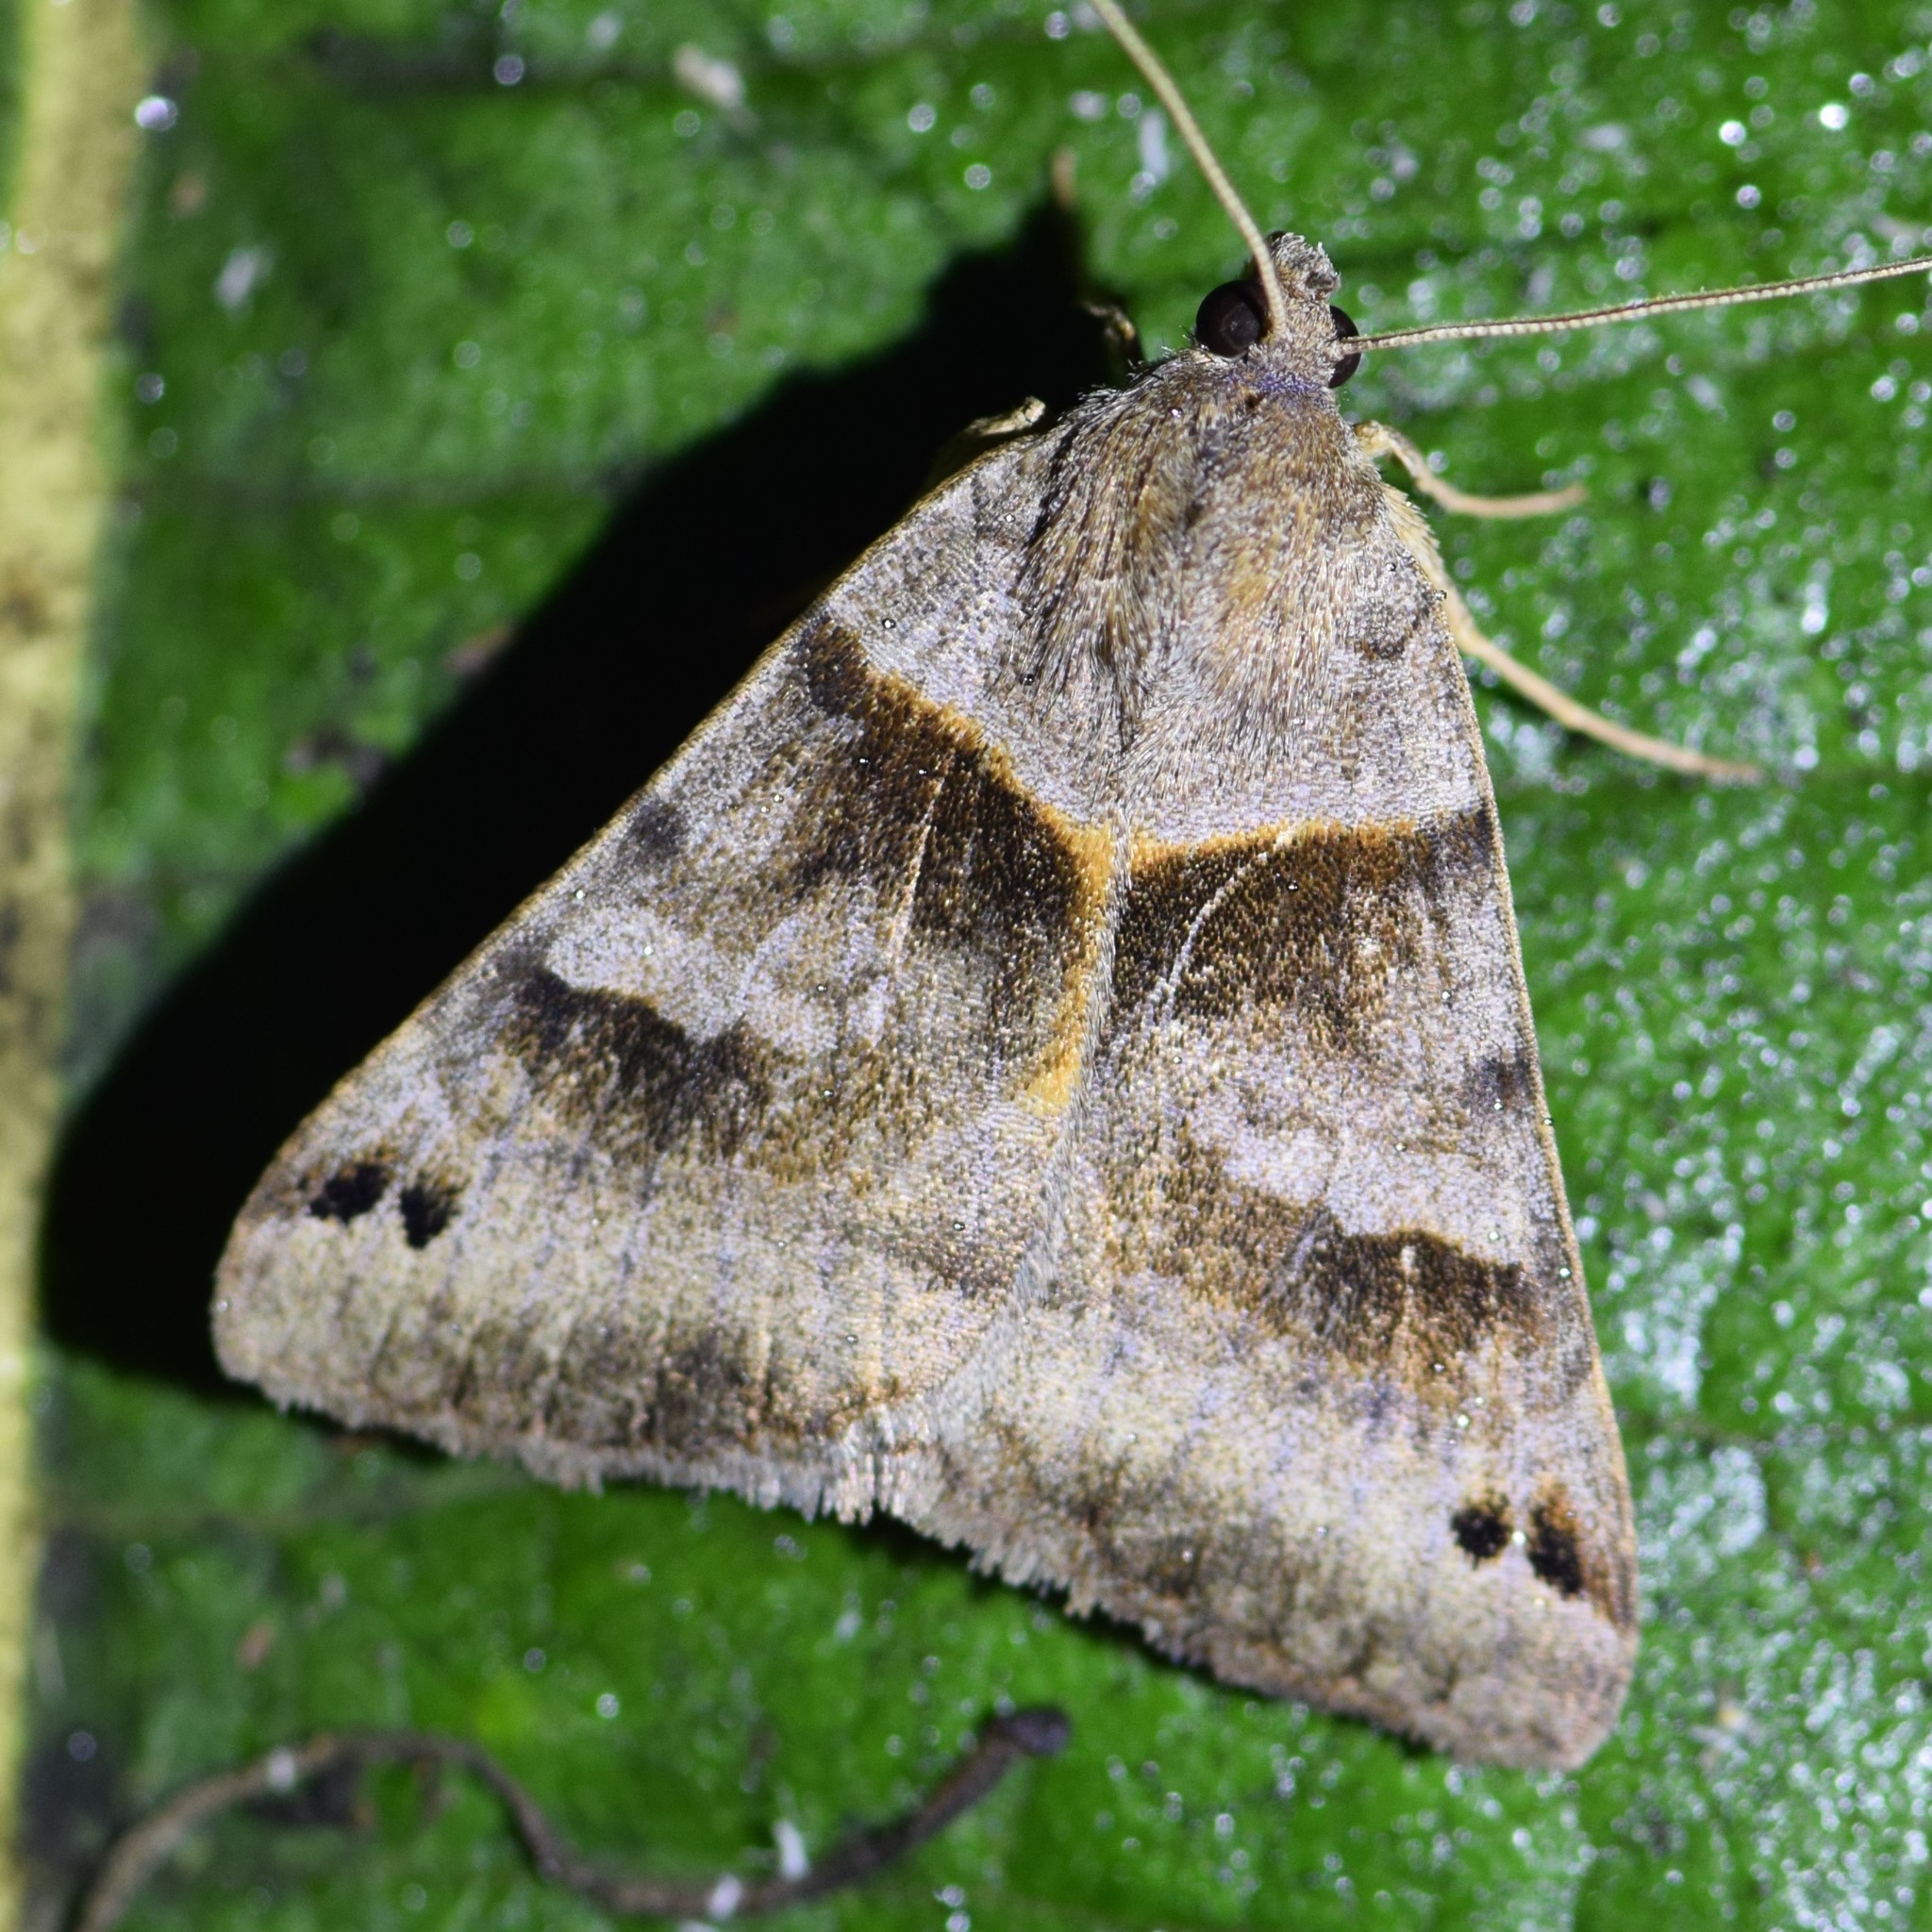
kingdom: Animalia
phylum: Arthropoda
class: Insecta
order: Lepidoptera
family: Erebidae
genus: Caenurgina
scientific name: Caenurgina crassiuscula
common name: Double-barred
